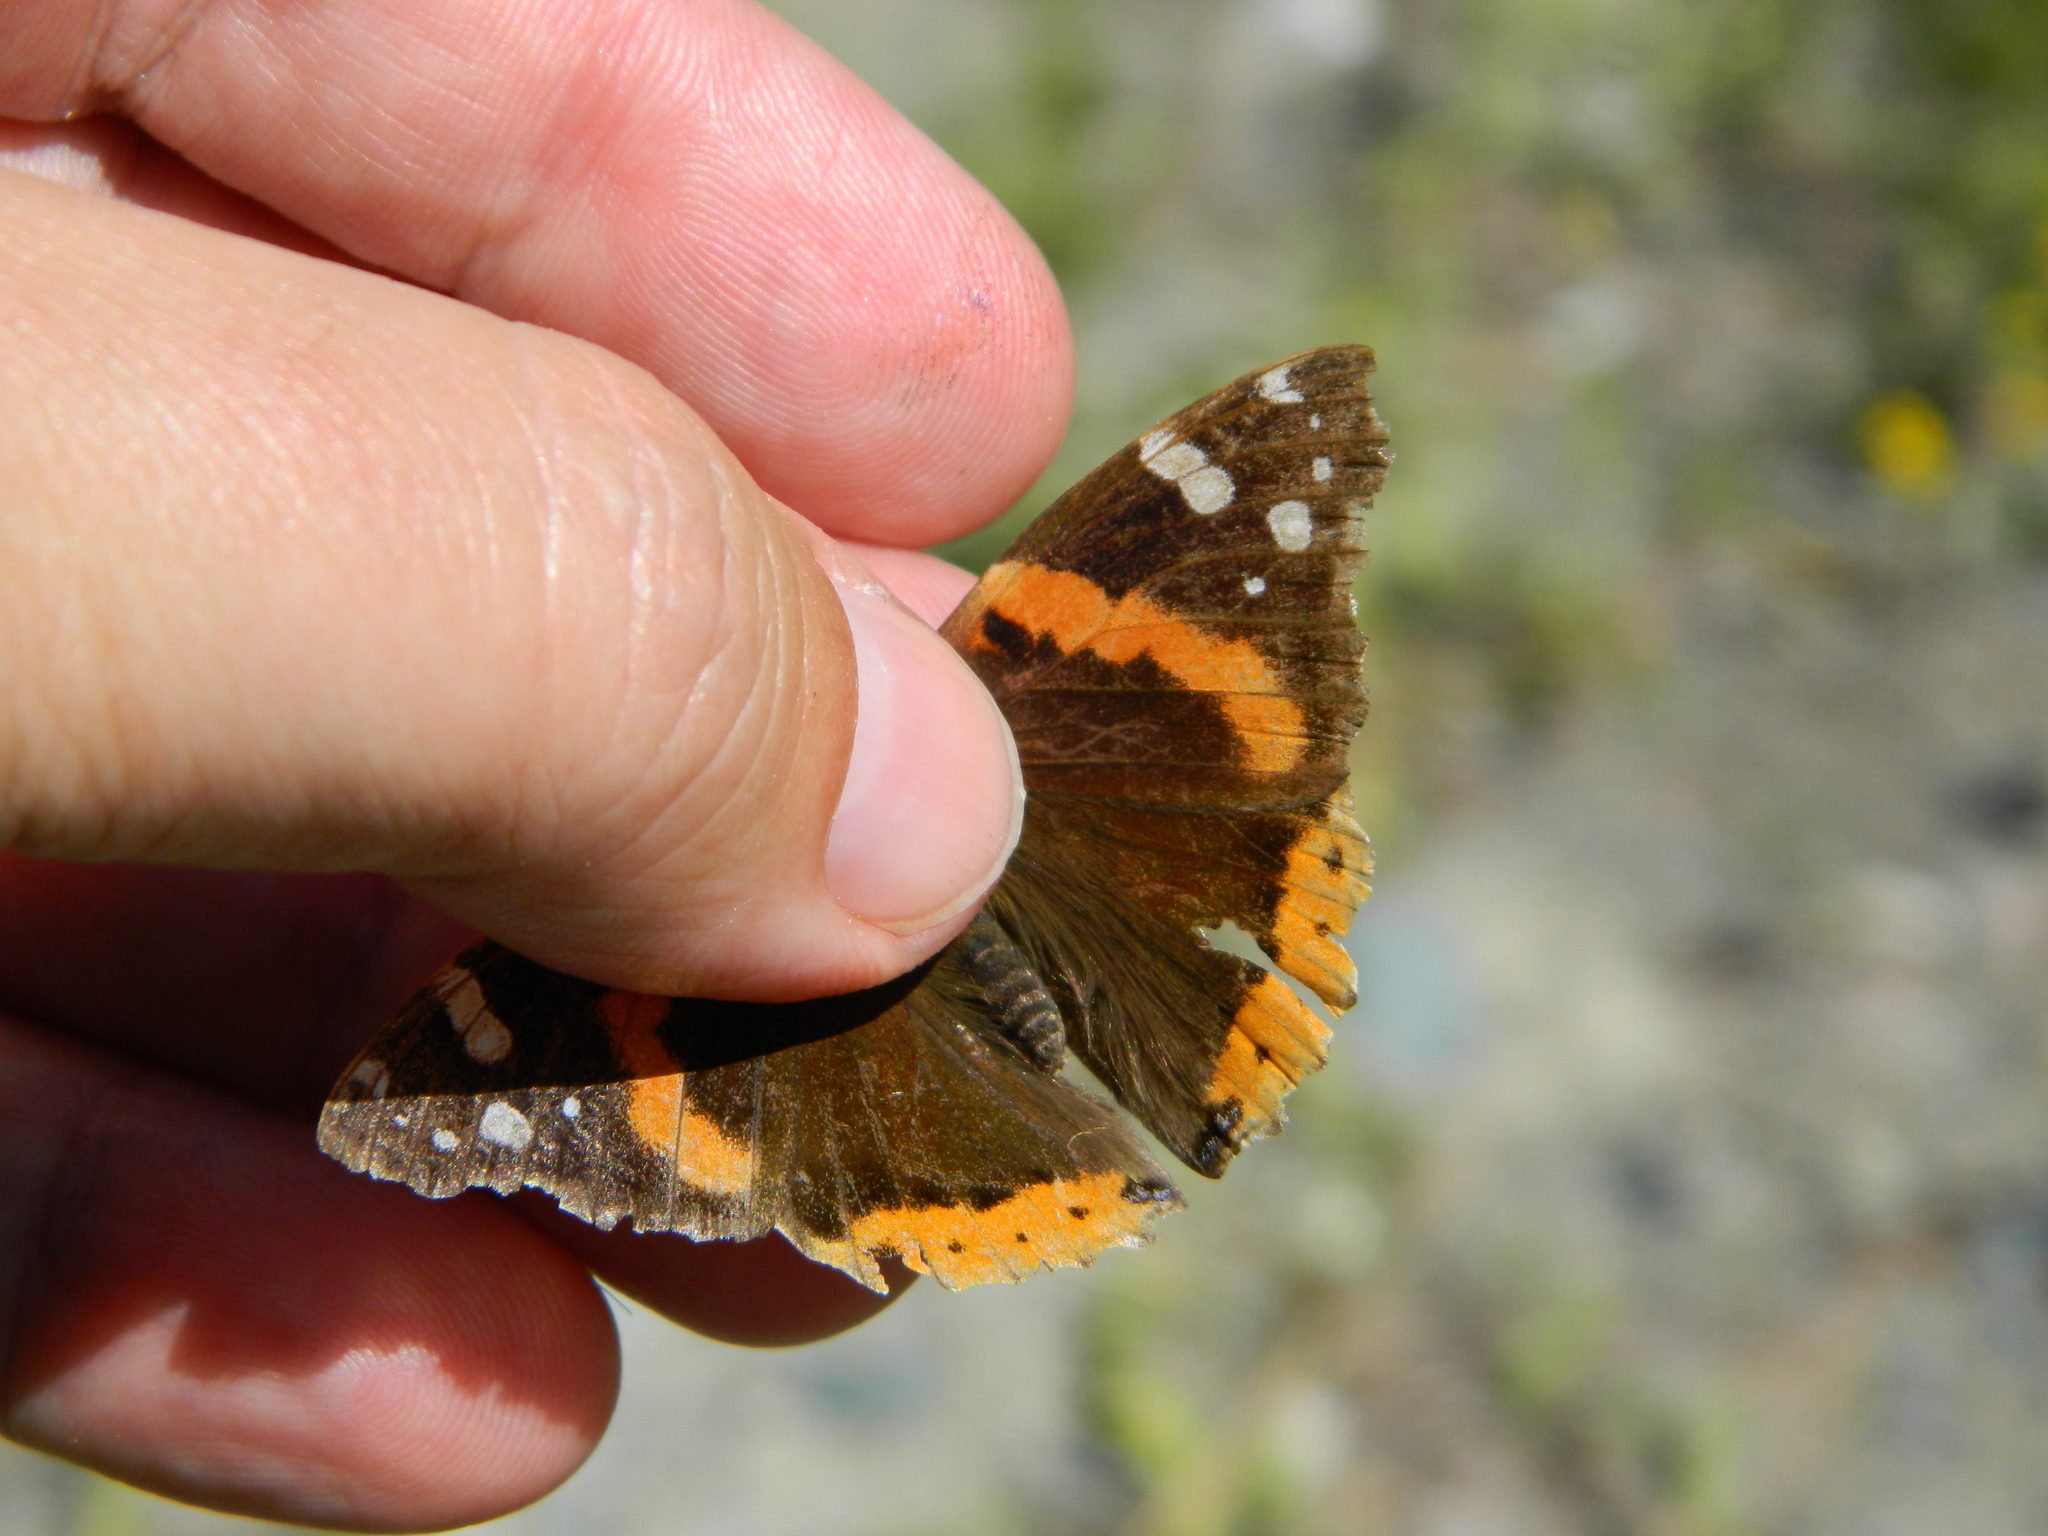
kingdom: Animalia
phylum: Arthropoda
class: Insecta
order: Lepidoptera
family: Nymphalidae
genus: Vanessa
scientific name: Vanessa atalanta
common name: Red admiral
